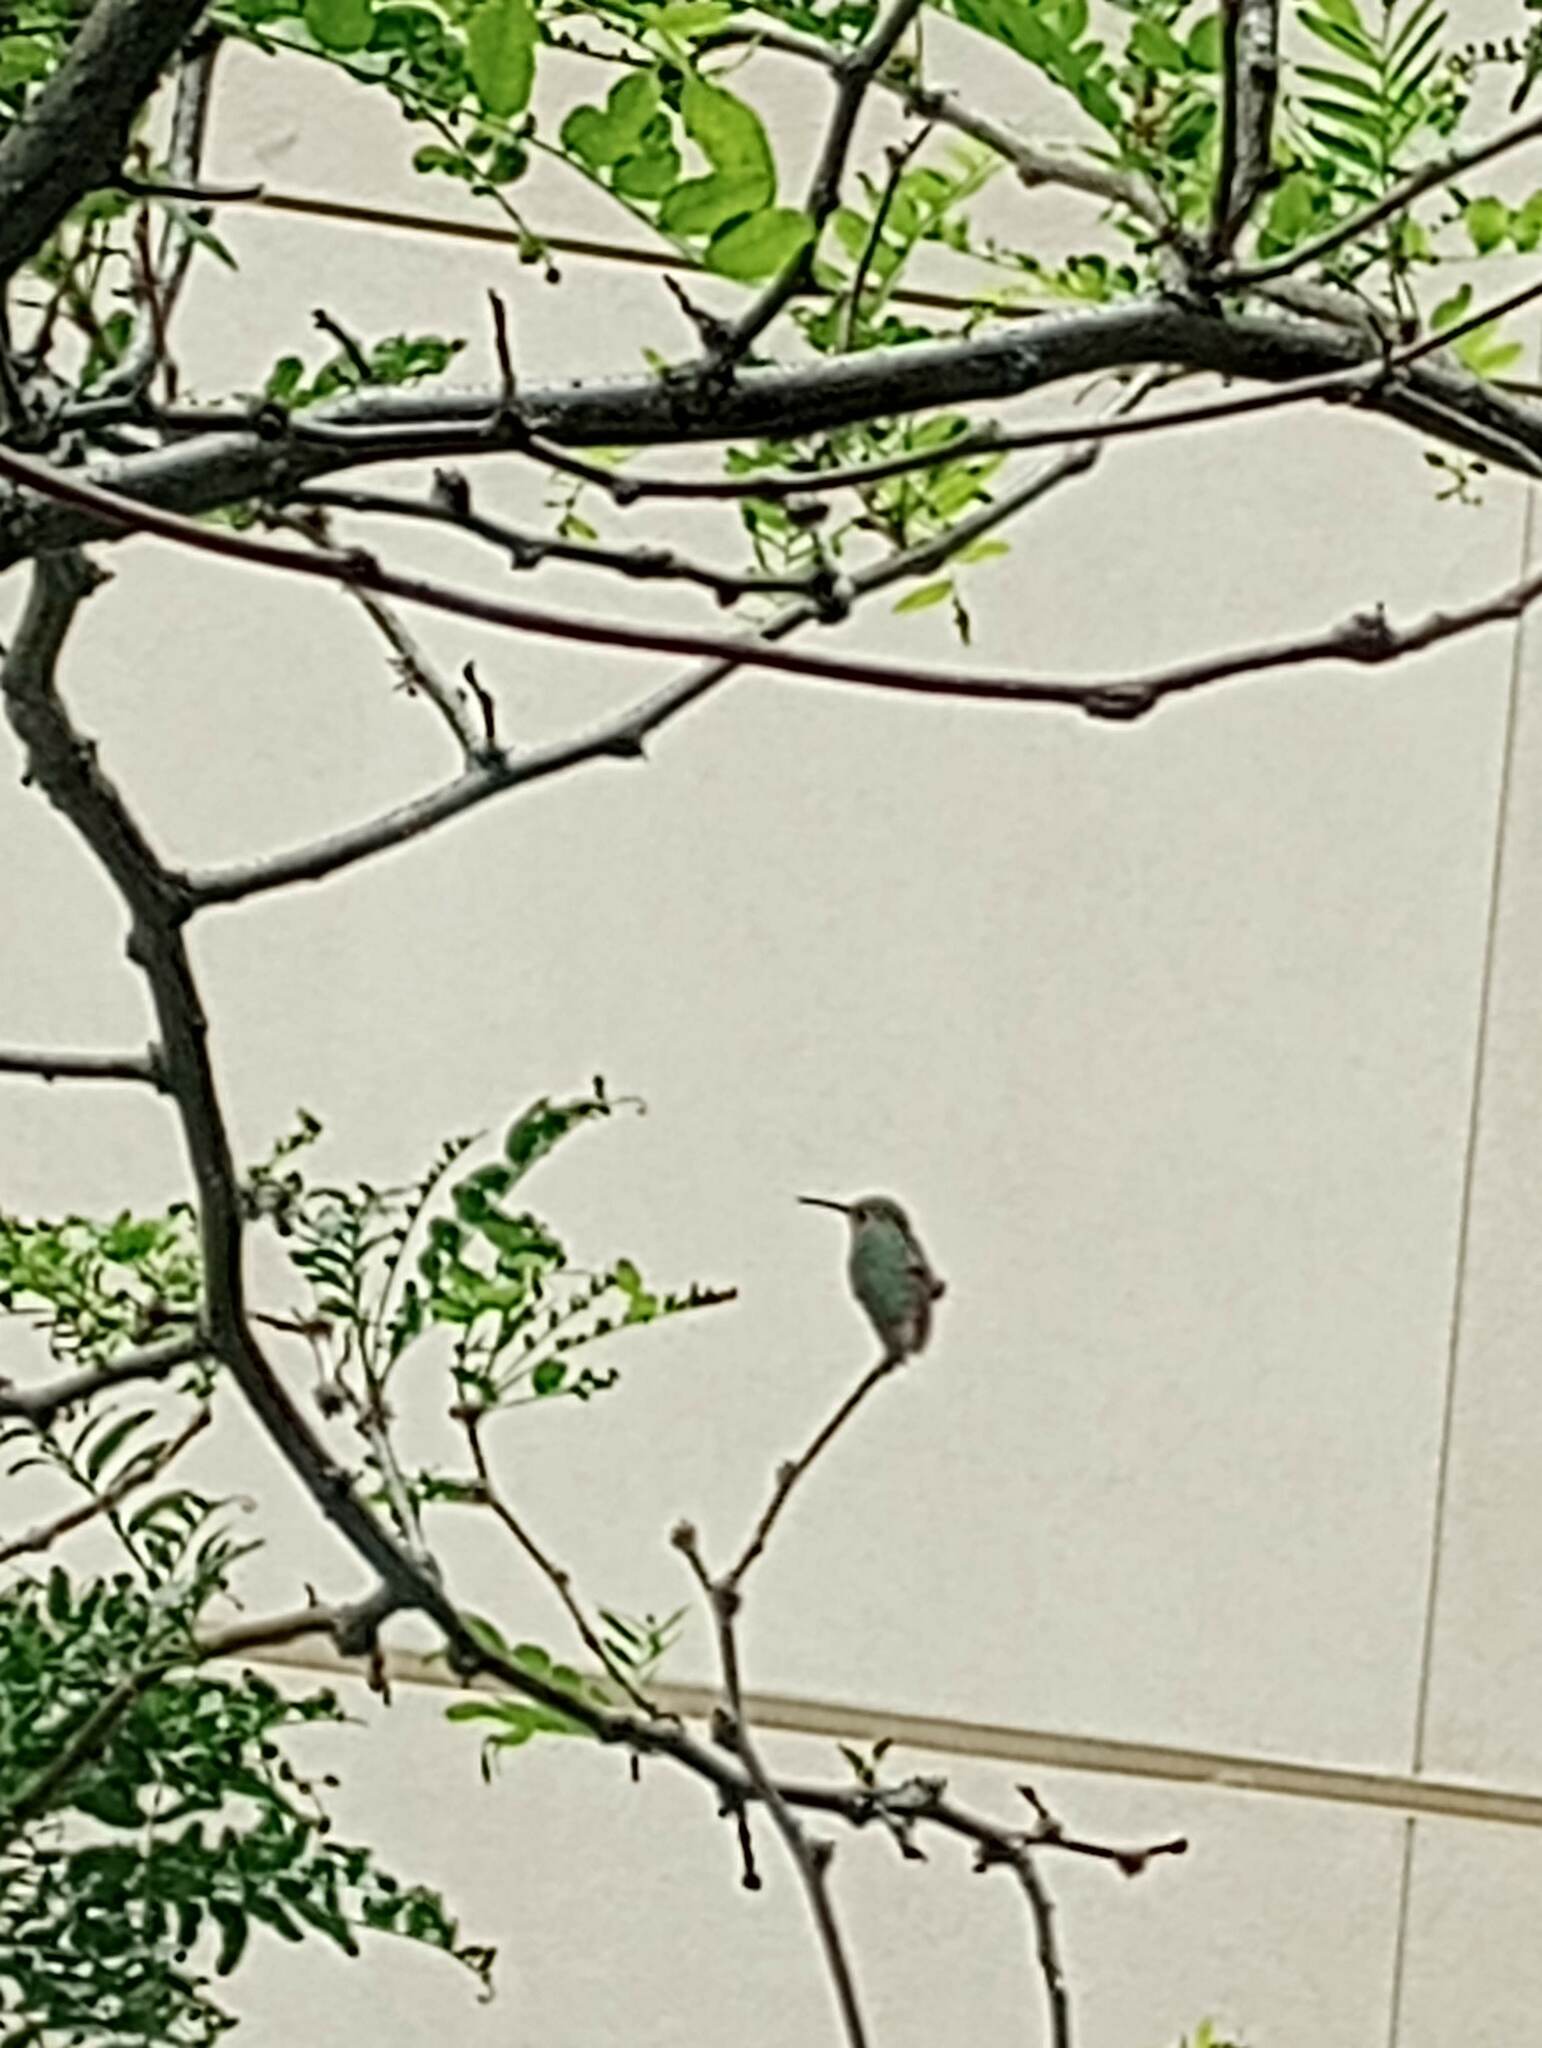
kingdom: Animalia
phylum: Chordata
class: Aves
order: Apodiformes
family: Trochilidae
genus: Calypte
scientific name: Calypte anna
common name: Anna's hummingbird
